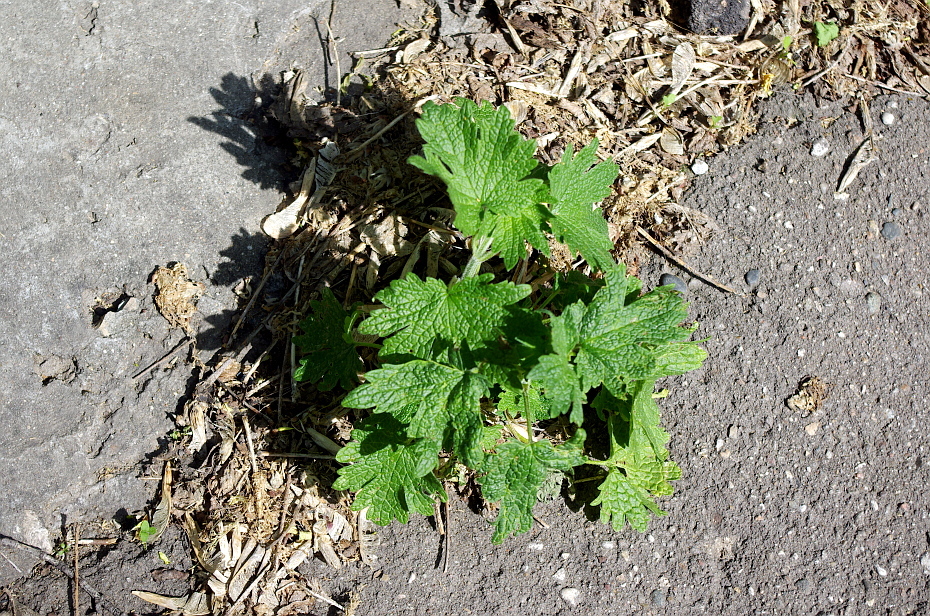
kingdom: Plantae
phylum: Tracheophyta
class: Magnoliopsida
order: Lamiales
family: Lamiaceae
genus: Leonurus
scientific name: Leonurus quinquelobatus
